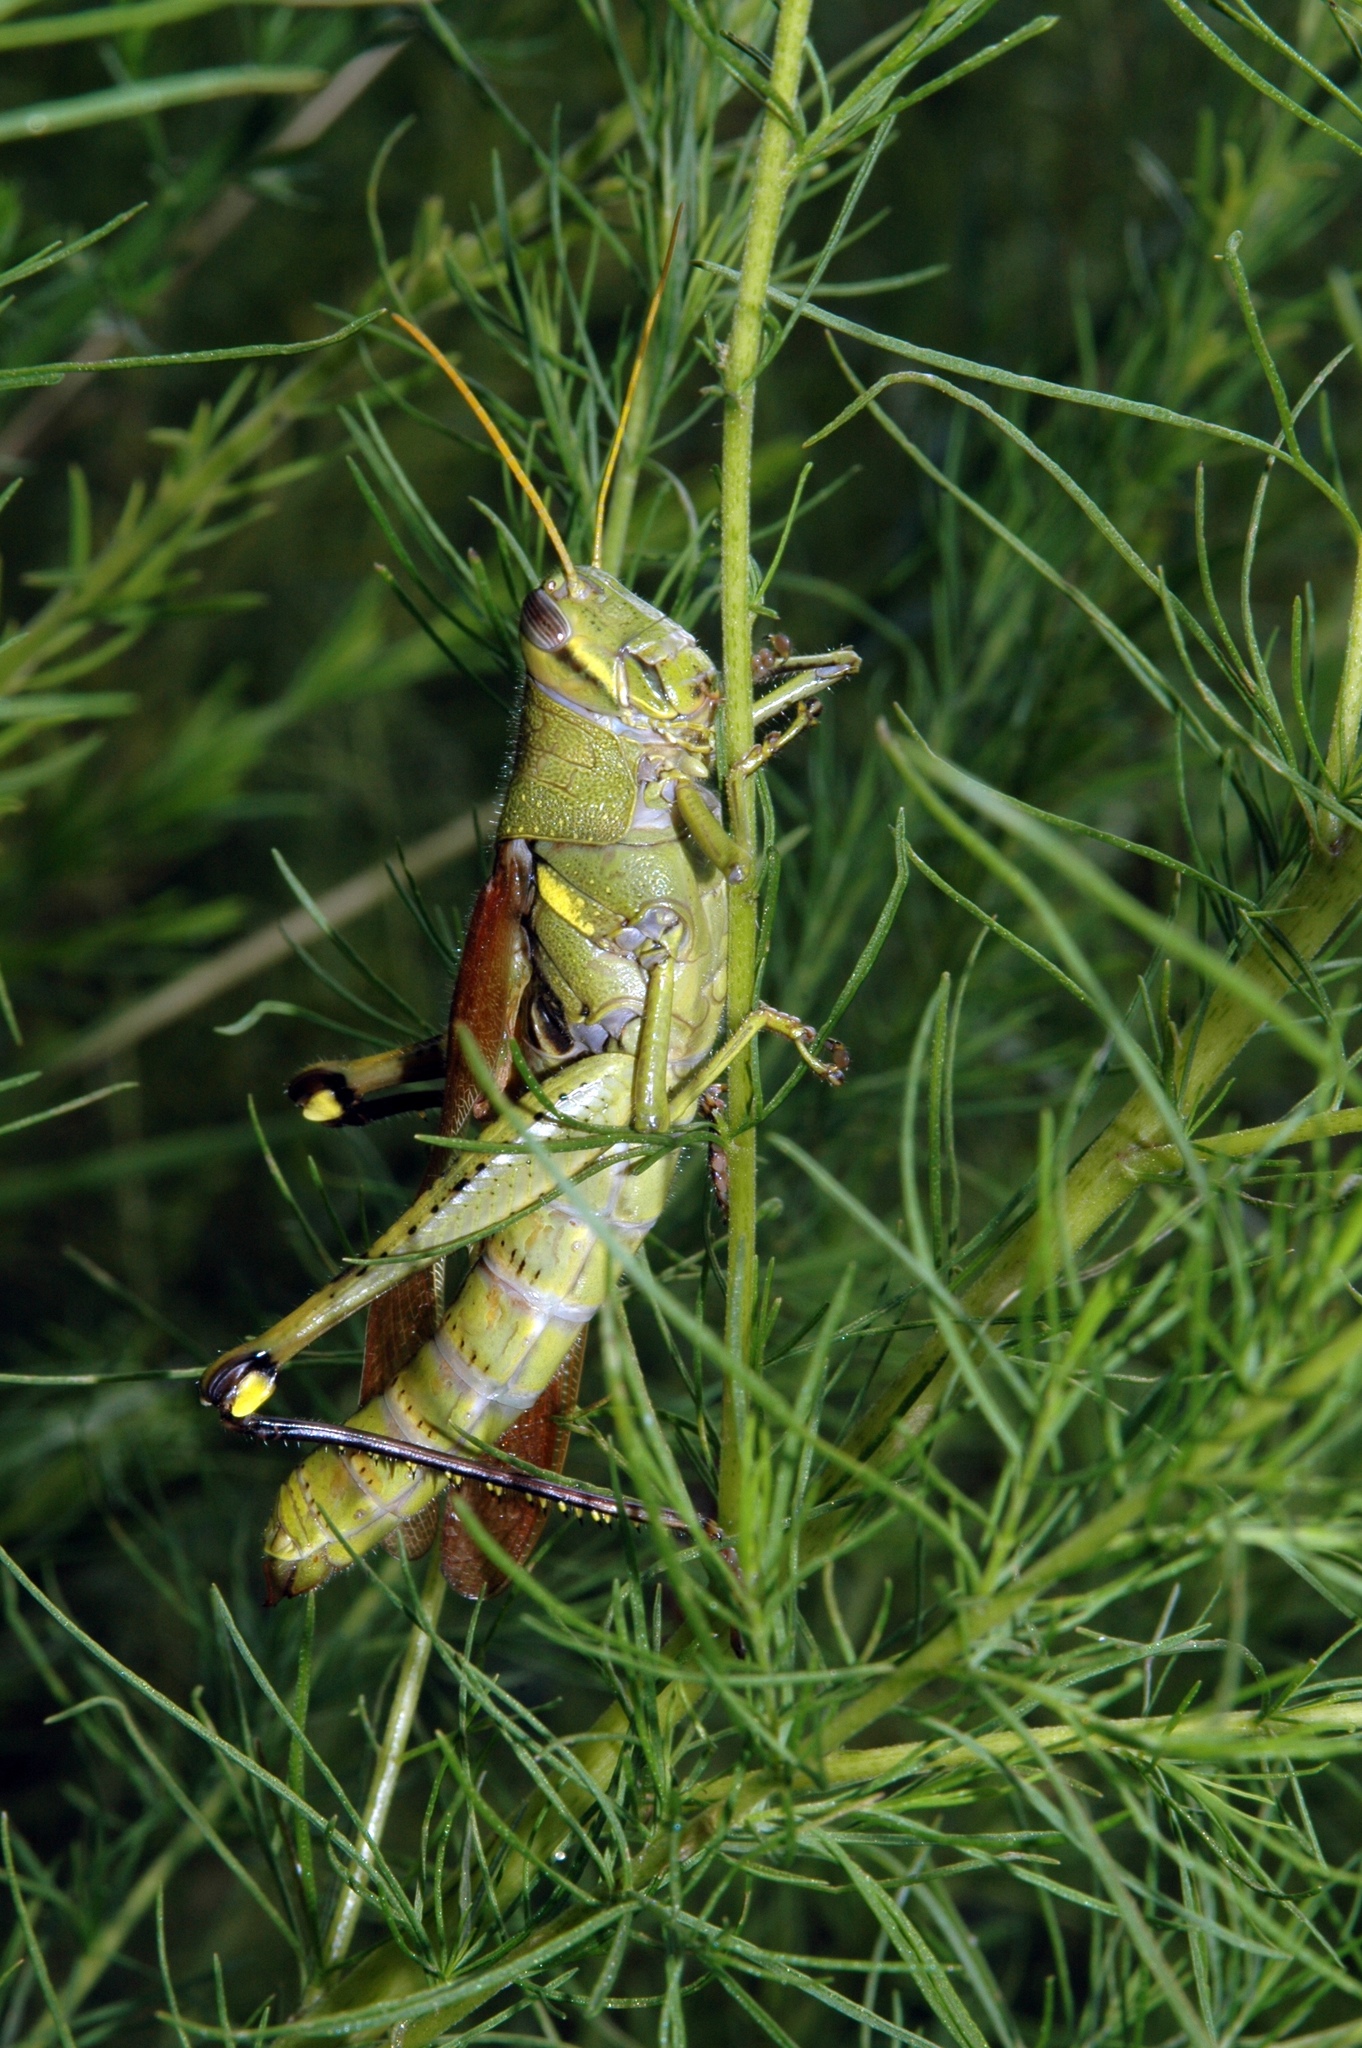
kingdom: Animalia
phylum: Arthropoda
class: Insecta
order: Orthoptera
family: Acrididae
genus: Schistocerca
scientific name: Schistocerca obscura
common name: Obscure bird grasshopper
